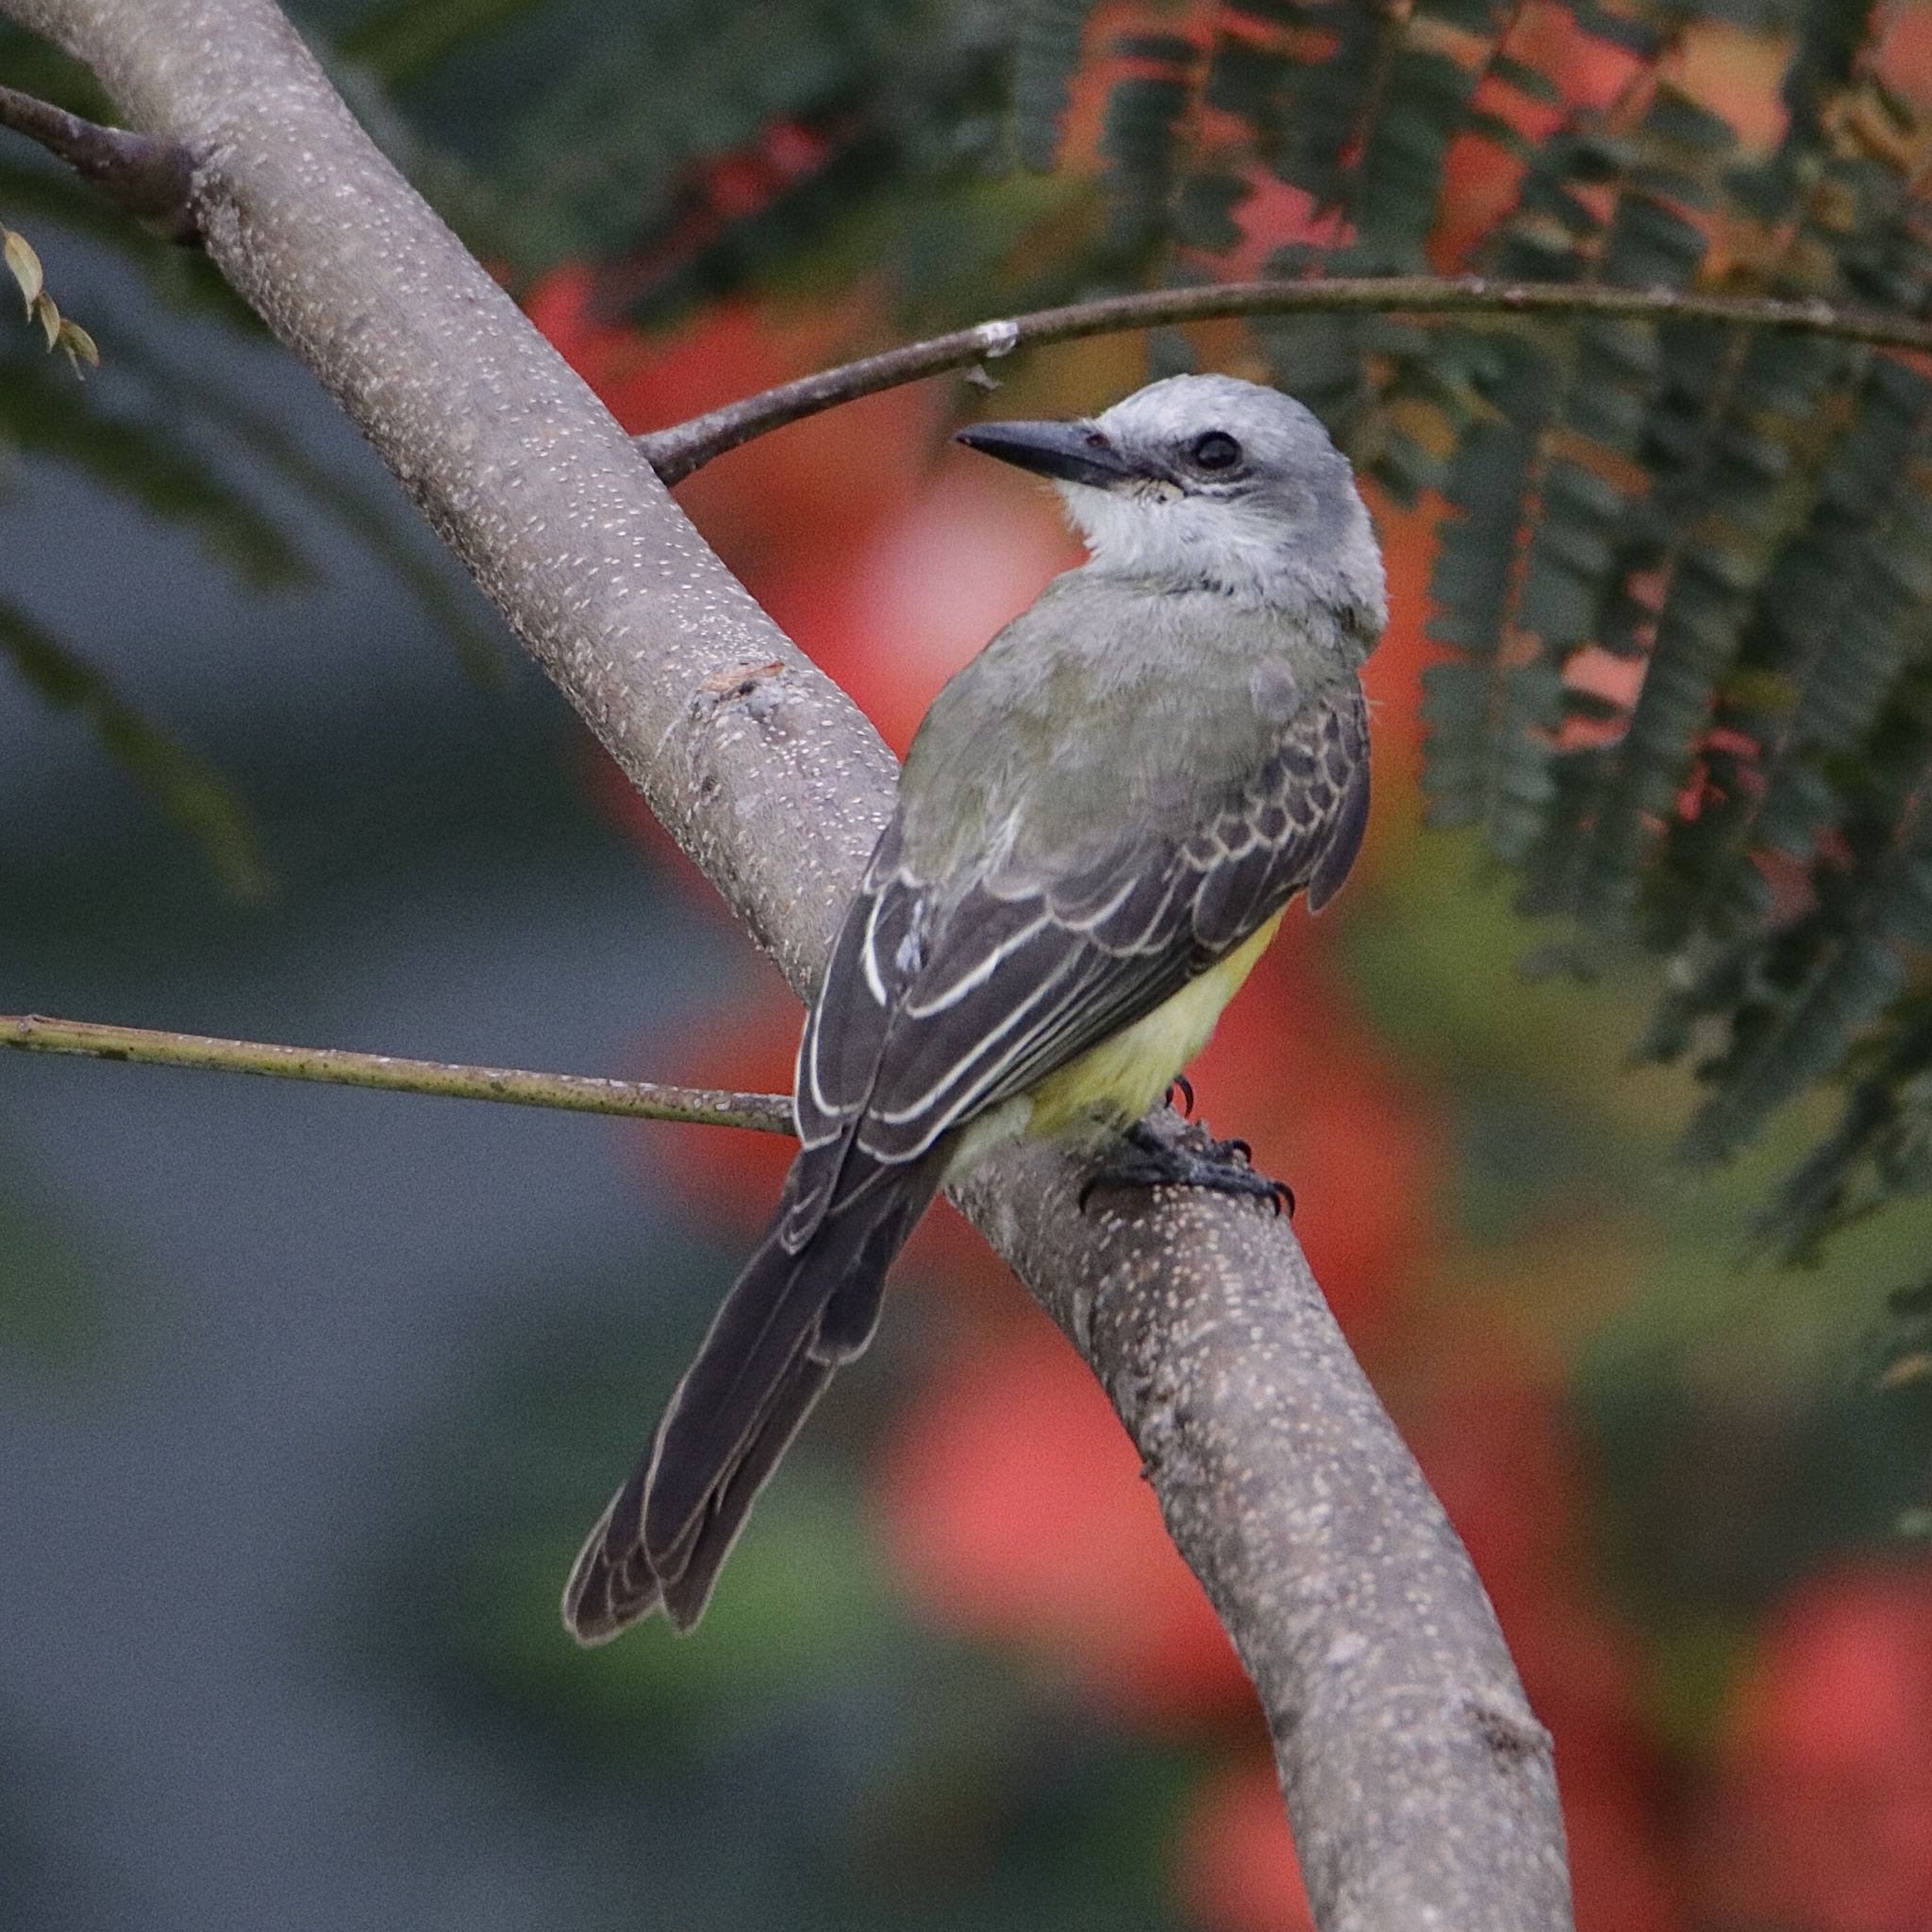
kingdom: Animalia
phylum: Chordata
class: Aves
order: Passeriformes
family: Tyrannidae
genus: Tyrannus
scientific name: Tyrannus melancholicus
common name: Tropical kingbird
